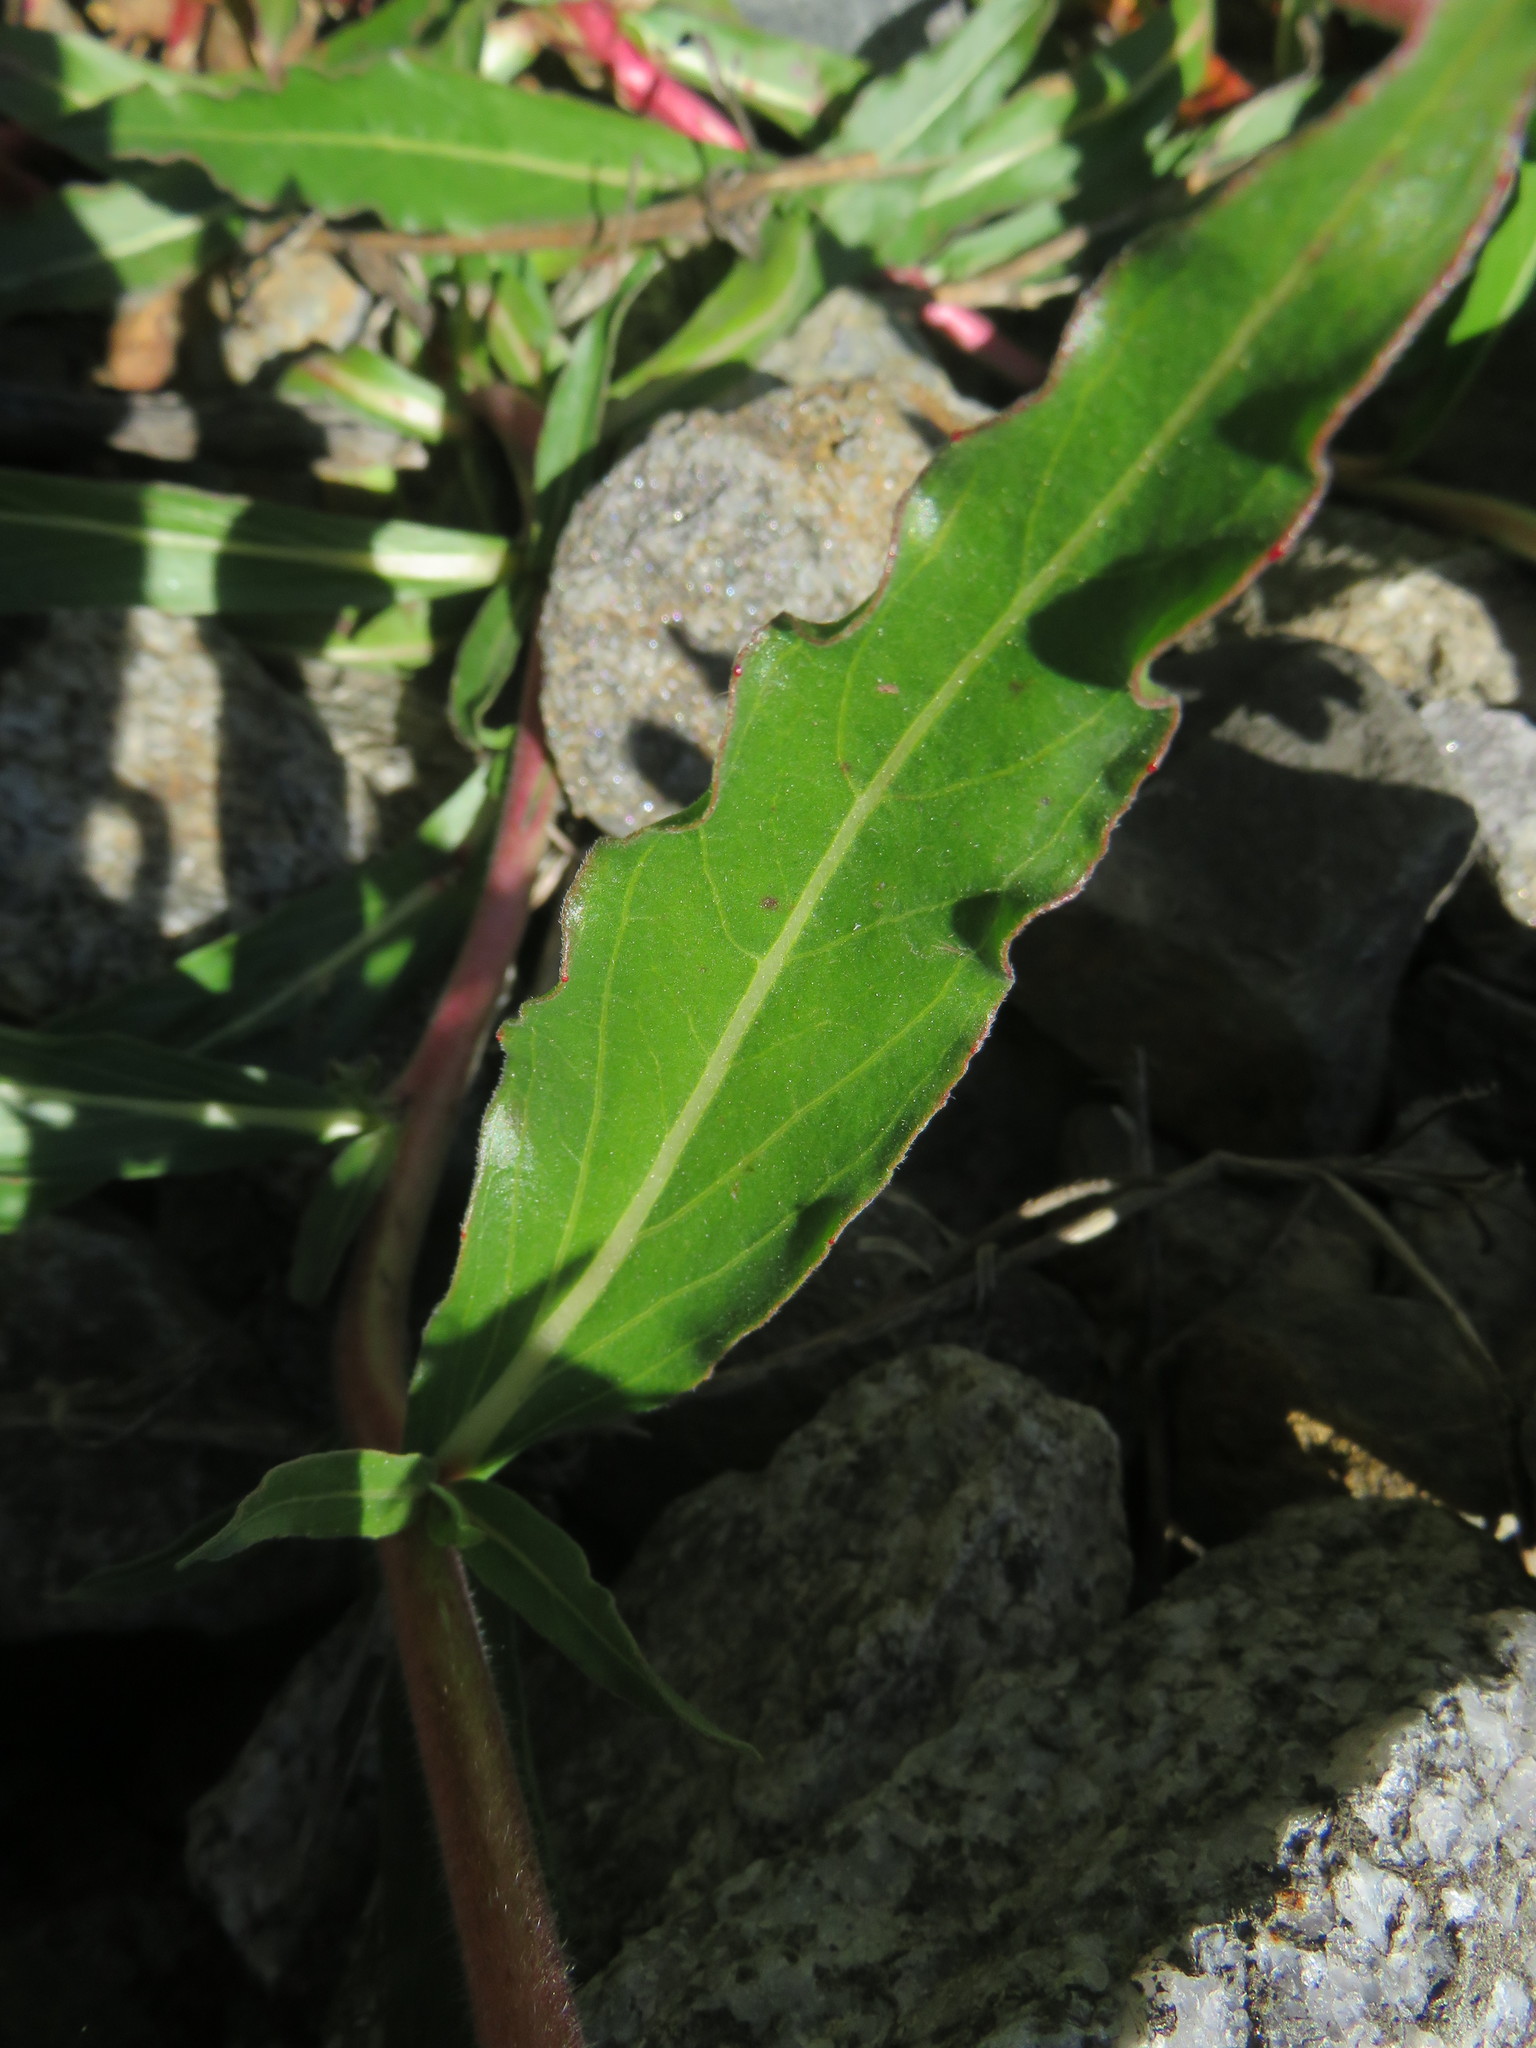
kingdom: Plantae
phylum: Tracheophyta
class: Magnoliopsida
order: Myrtales
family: Onagraceae
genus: Oenothera
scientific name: Oenothera stricta
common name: Fragrant evening-primrose
